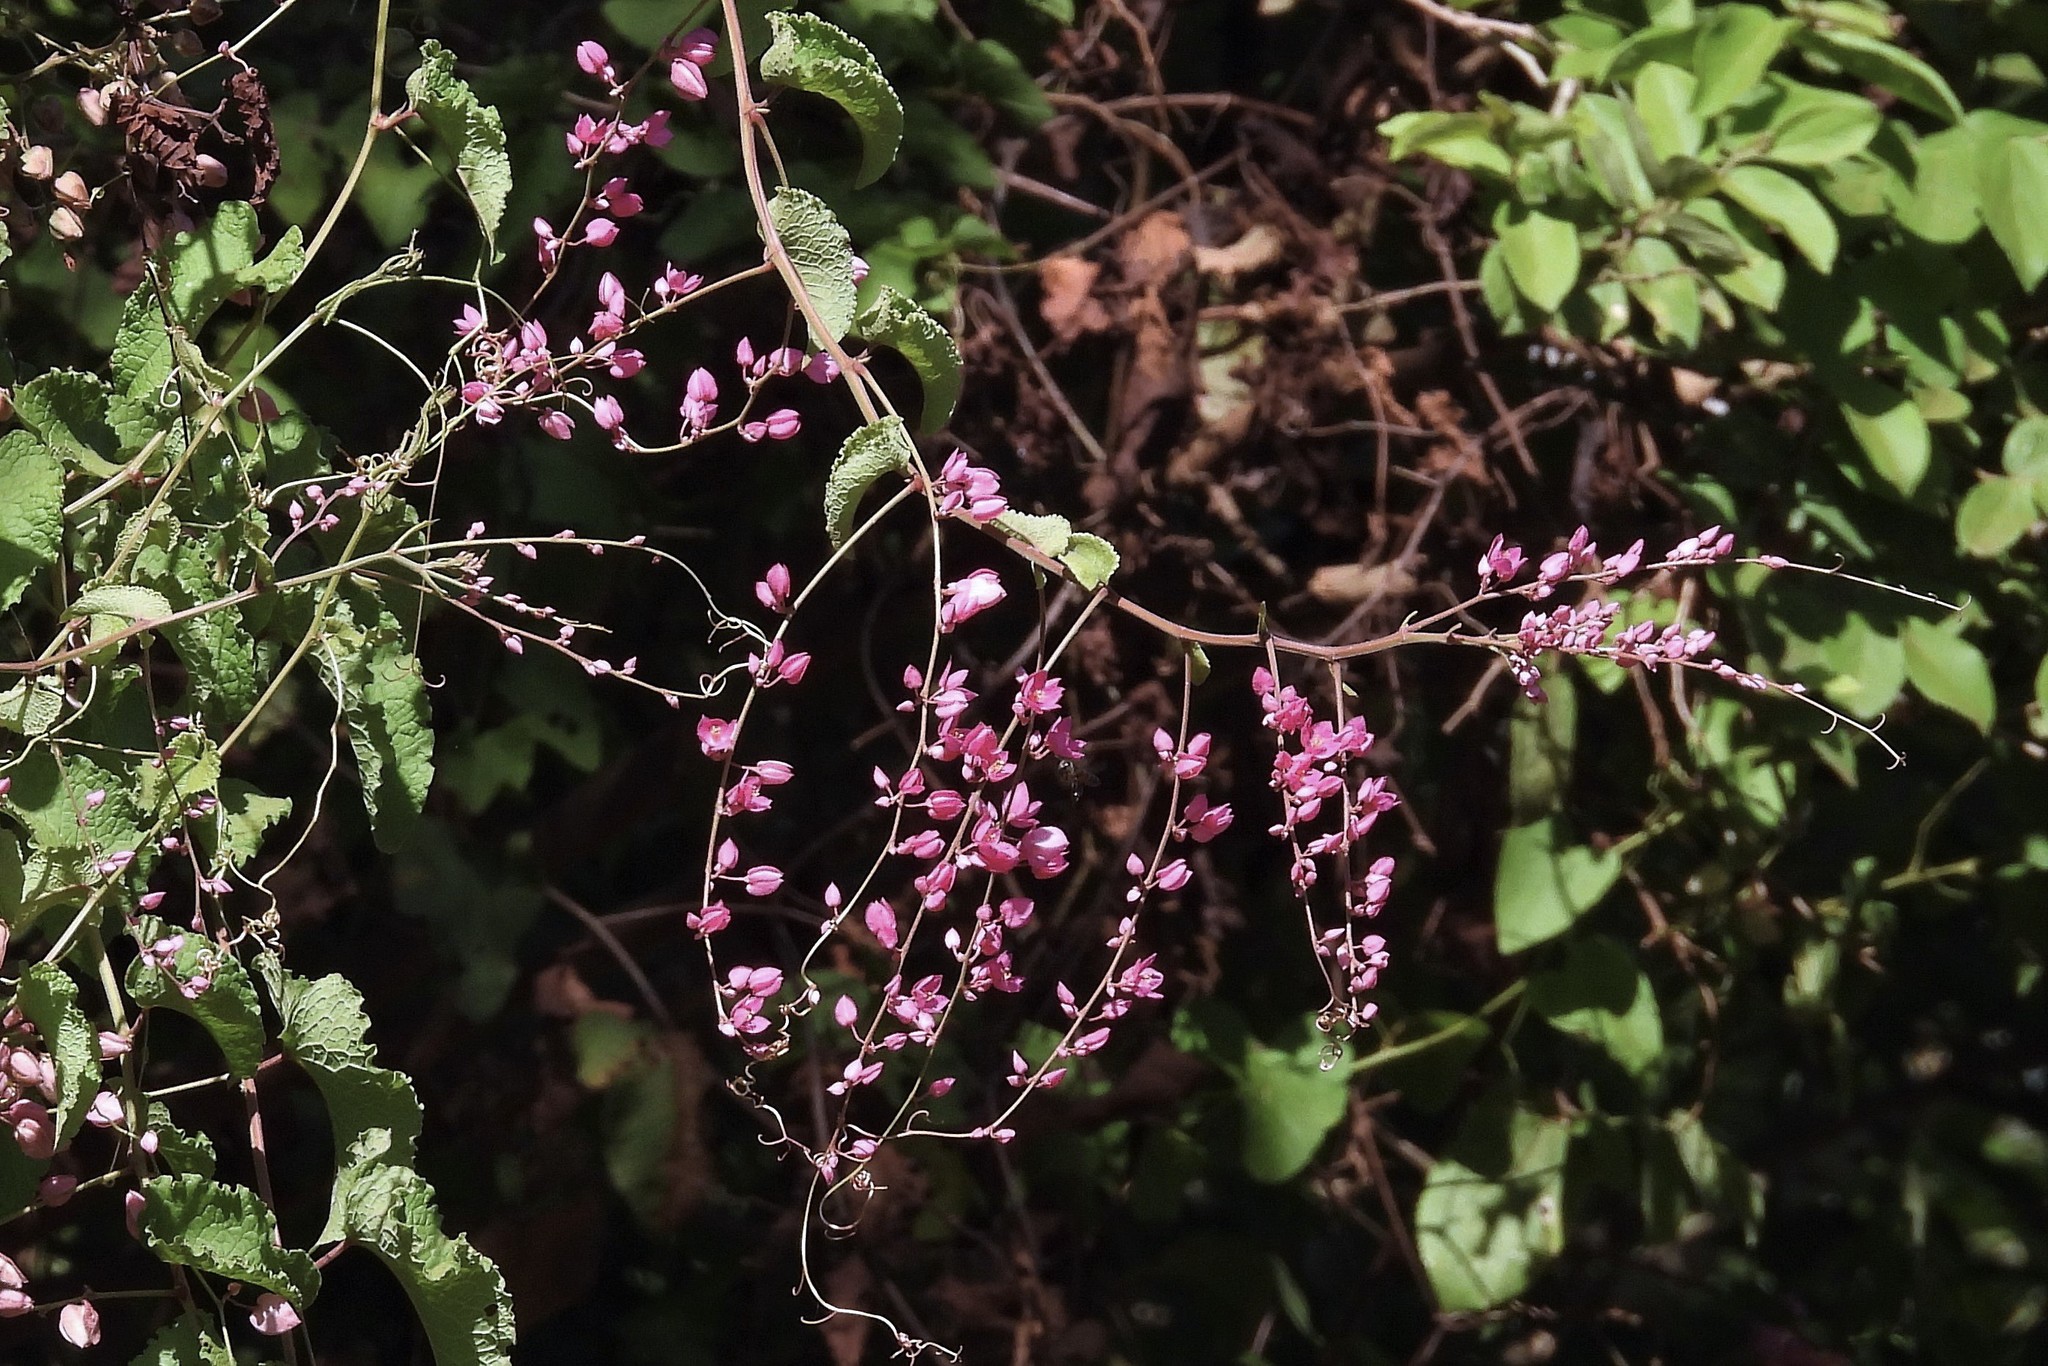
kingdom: Plantae
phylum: Tracheophyta
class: Magnoliopsida
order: Caryophyllales
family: Polygonaceae
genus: Antigonon
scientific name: Antigonon leptopus
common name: Coral vine
